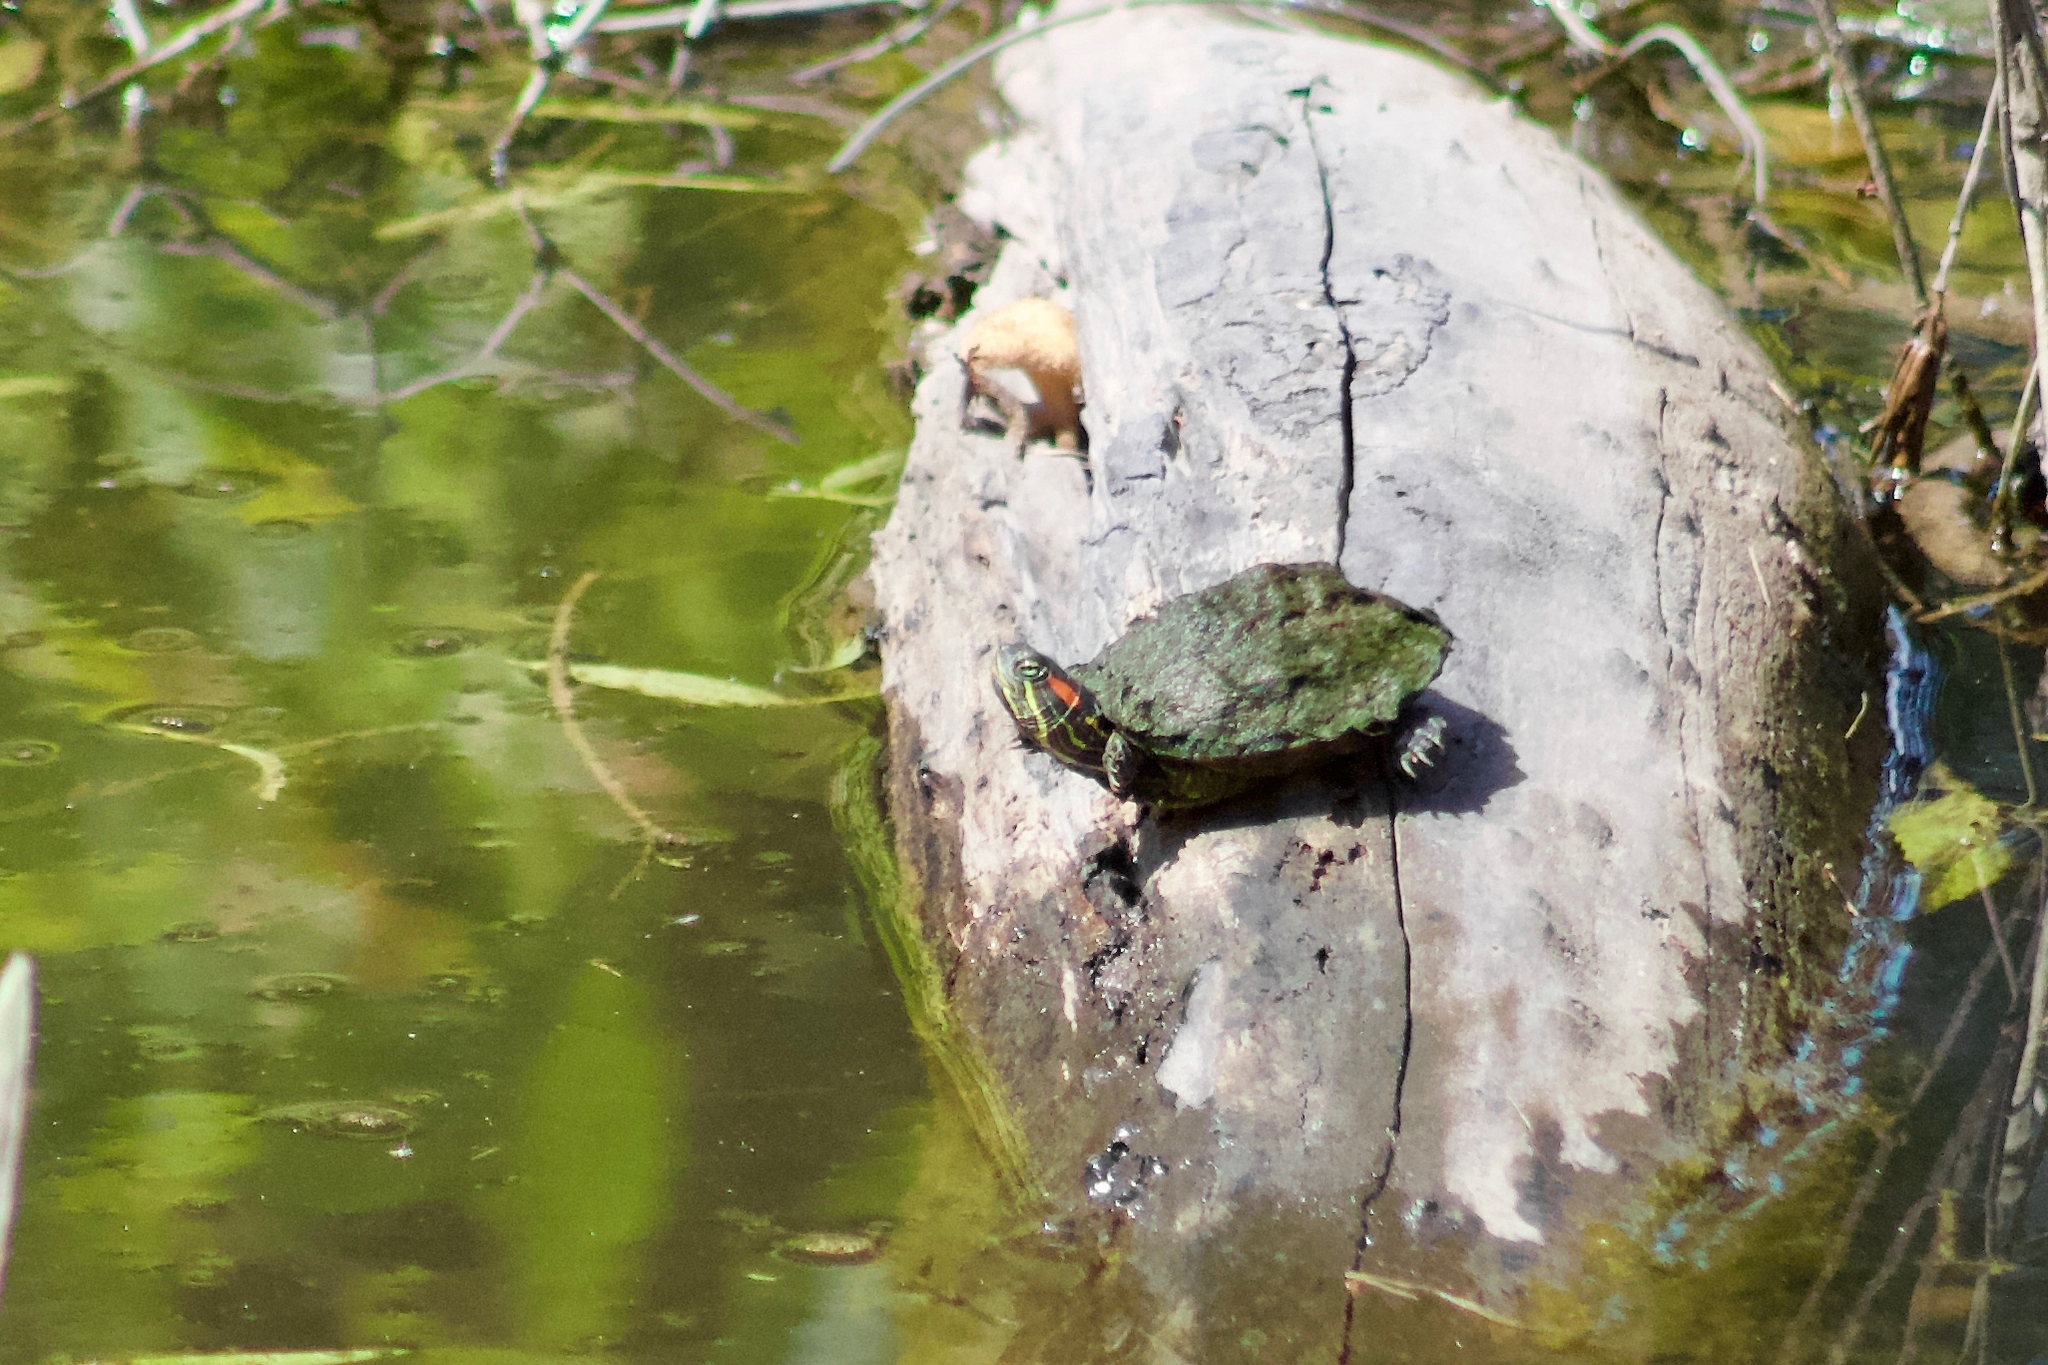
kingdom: Animalia
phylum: Chordata
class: Testudines
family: Emydidae
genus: Trachemys
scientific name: Trachemys scripta
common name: Slider
